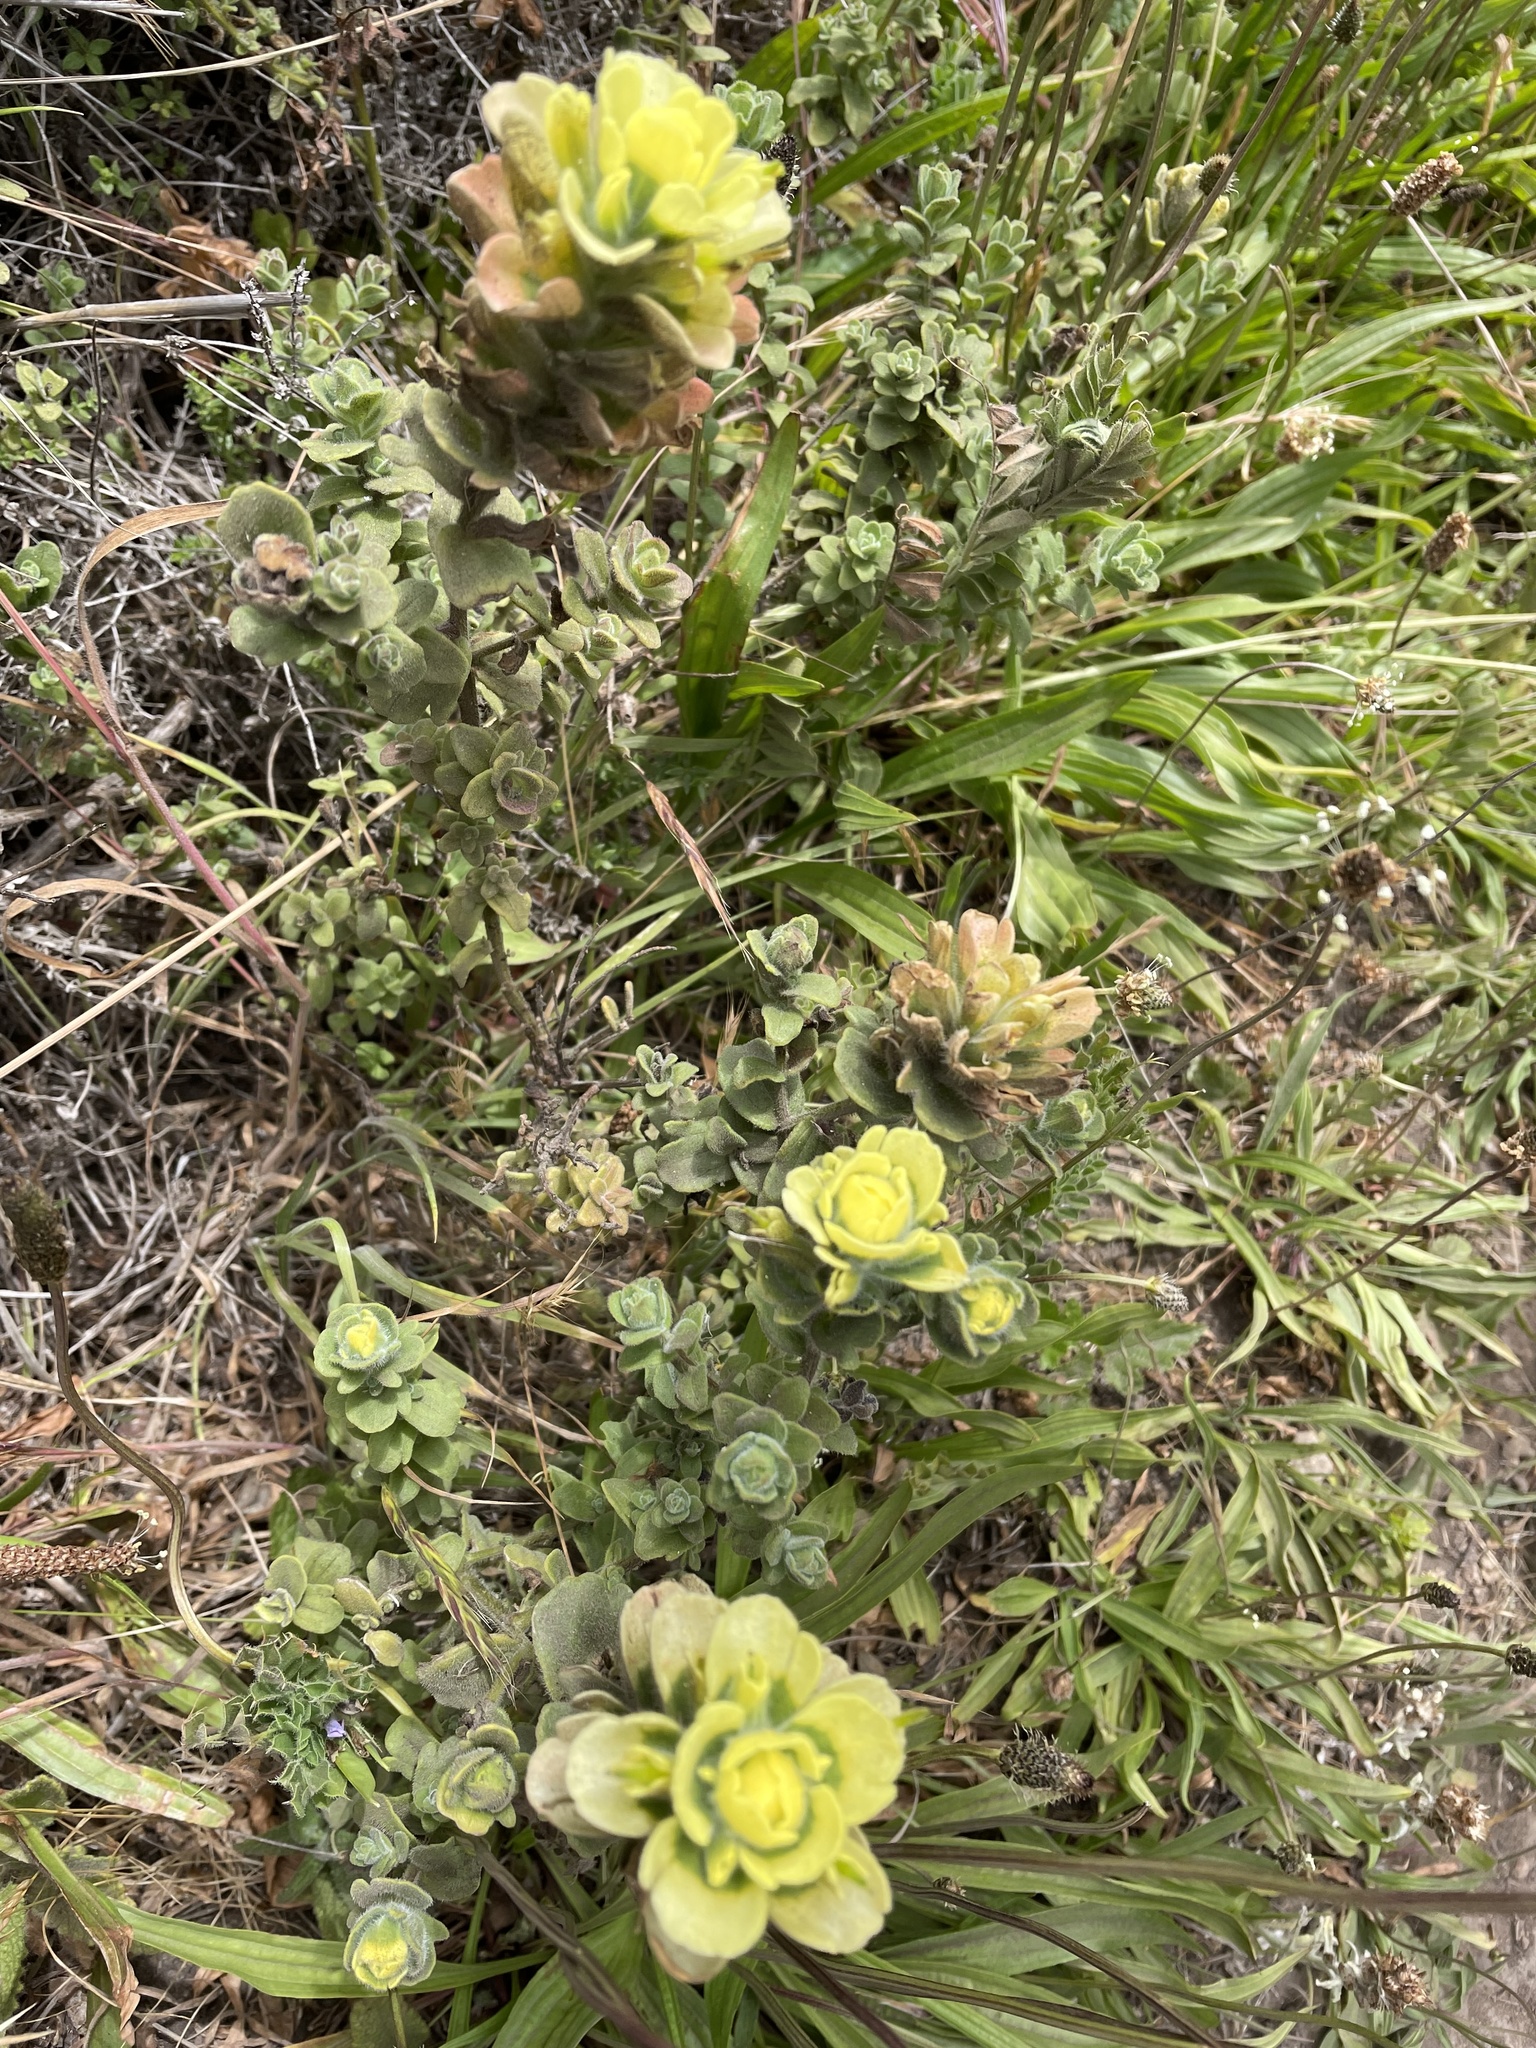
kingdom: Plantae
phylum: Tracheophyta
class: Magnoliopsida
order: Lamiales
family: Orobanchaceae
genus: Castilleja
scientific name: Castilleja latifolia
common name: Monterey indian paintbrush
